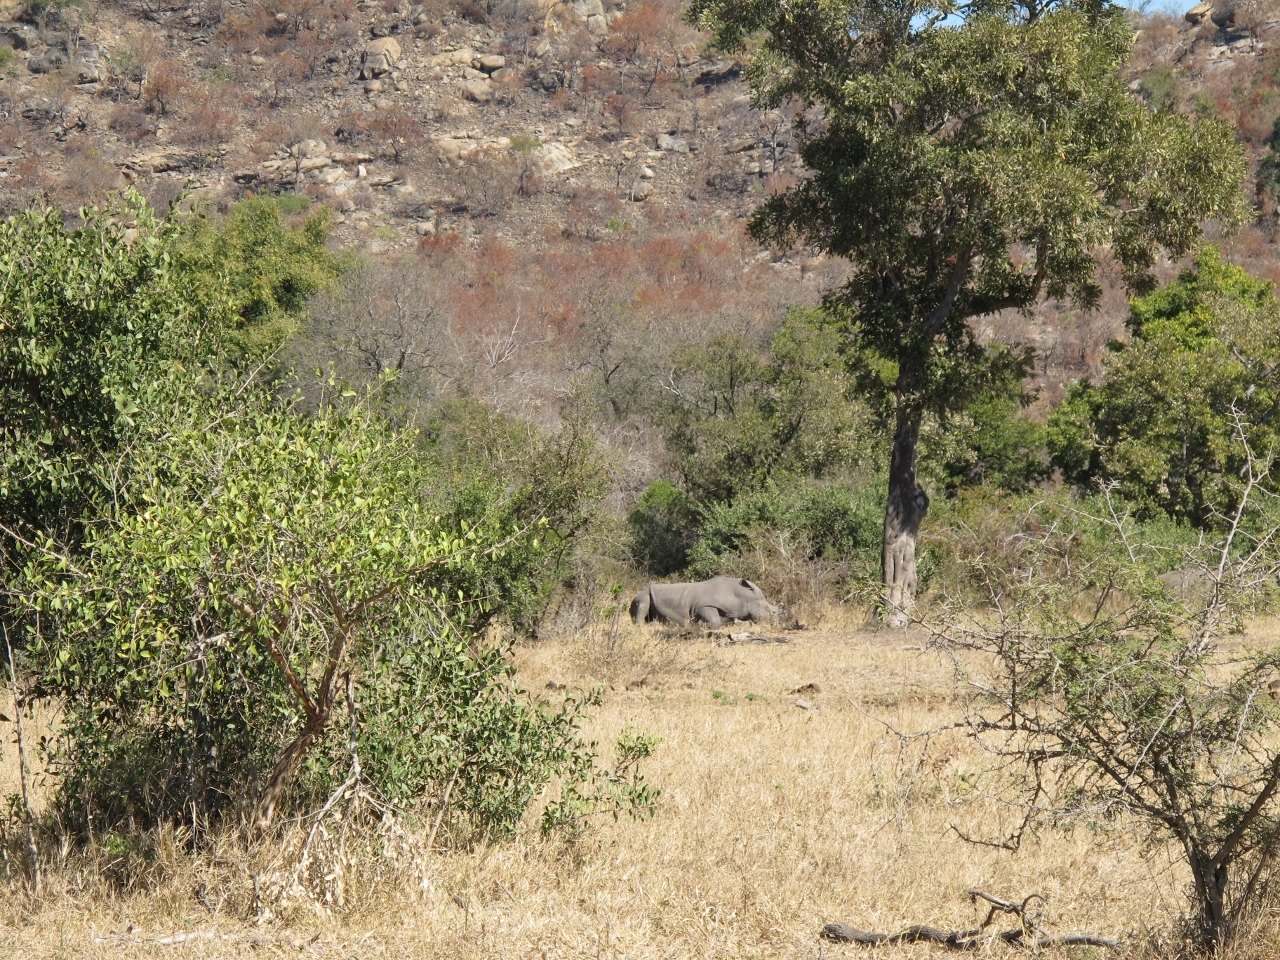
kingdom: Animalia
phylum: Chordata
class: Mammalia
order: Perissodactyla
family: Rhinocerotidae
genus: Ceratotherium
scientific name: Ceratotherium simum
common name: White rhinoceros
